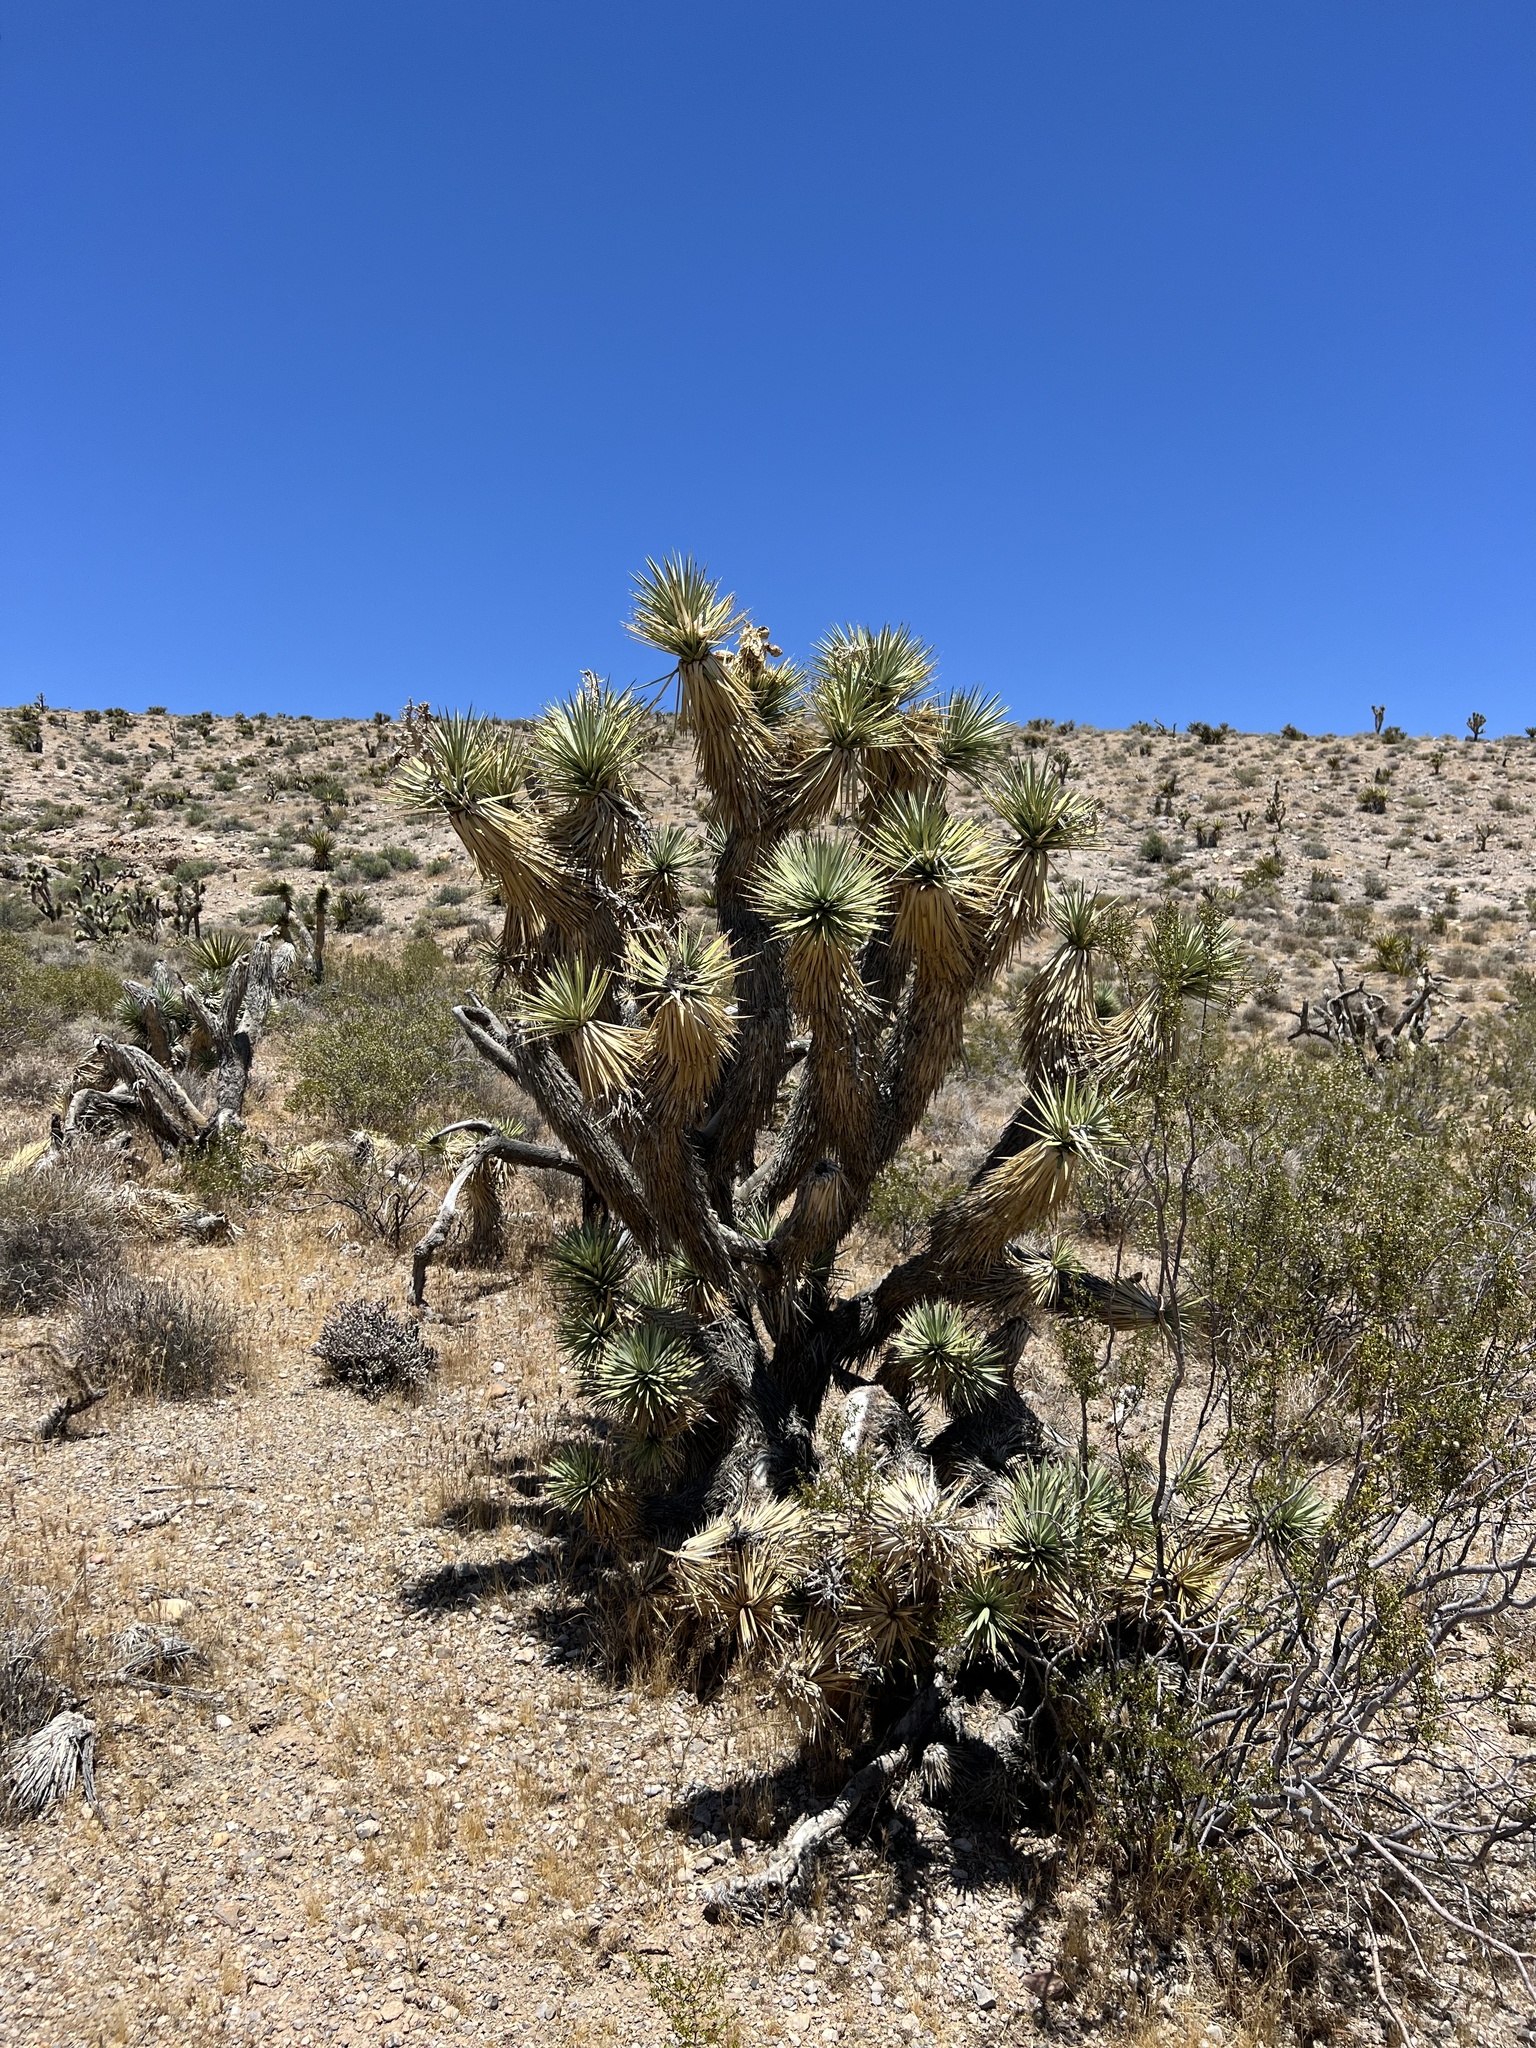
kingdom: Plantae
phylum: Tracheophyta
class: Liliopsida
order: Asparagales
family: Asparagaceae
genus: Yucca
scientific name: Yucca brevifolia
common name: Joshua tree
